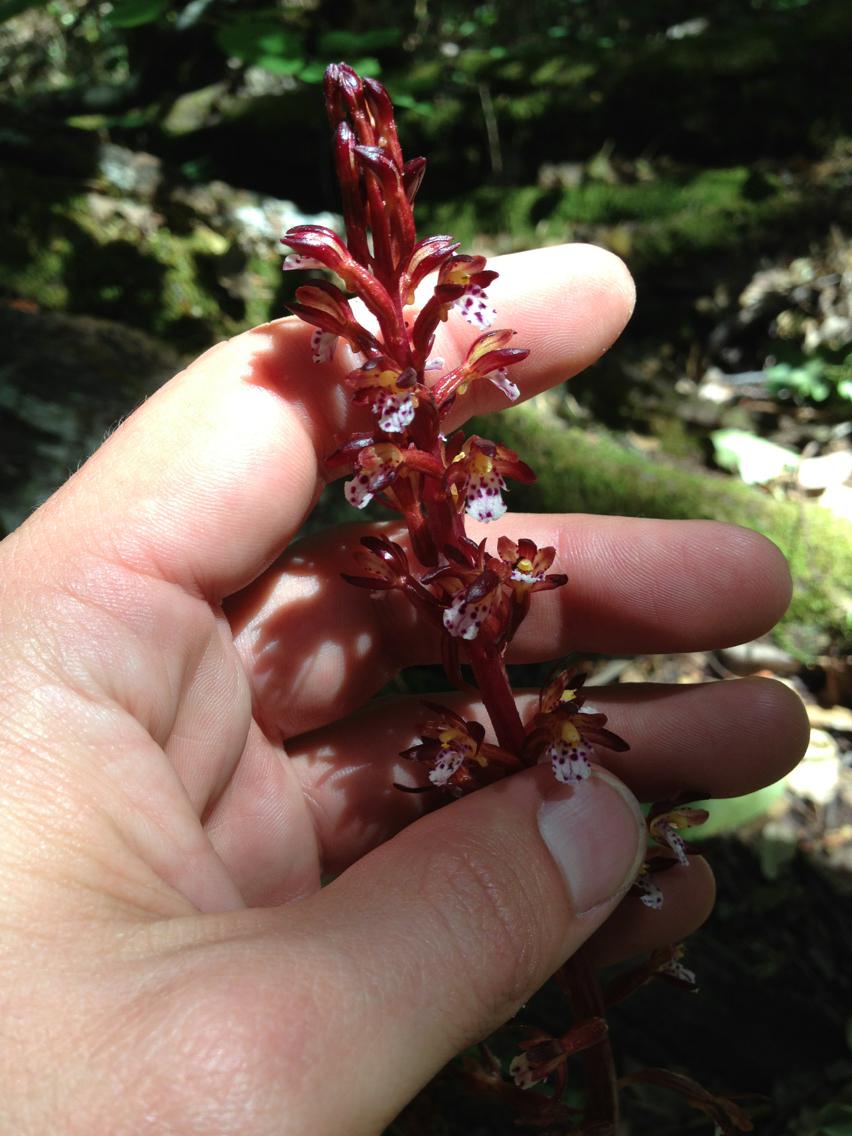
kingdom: Plantae
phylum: Tracheophyta
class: Liliopsida
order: Asparagales
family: Orchidaceae
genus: Corallorhiza
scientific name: Corallorhiza maculata
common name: Spotted coralroot
